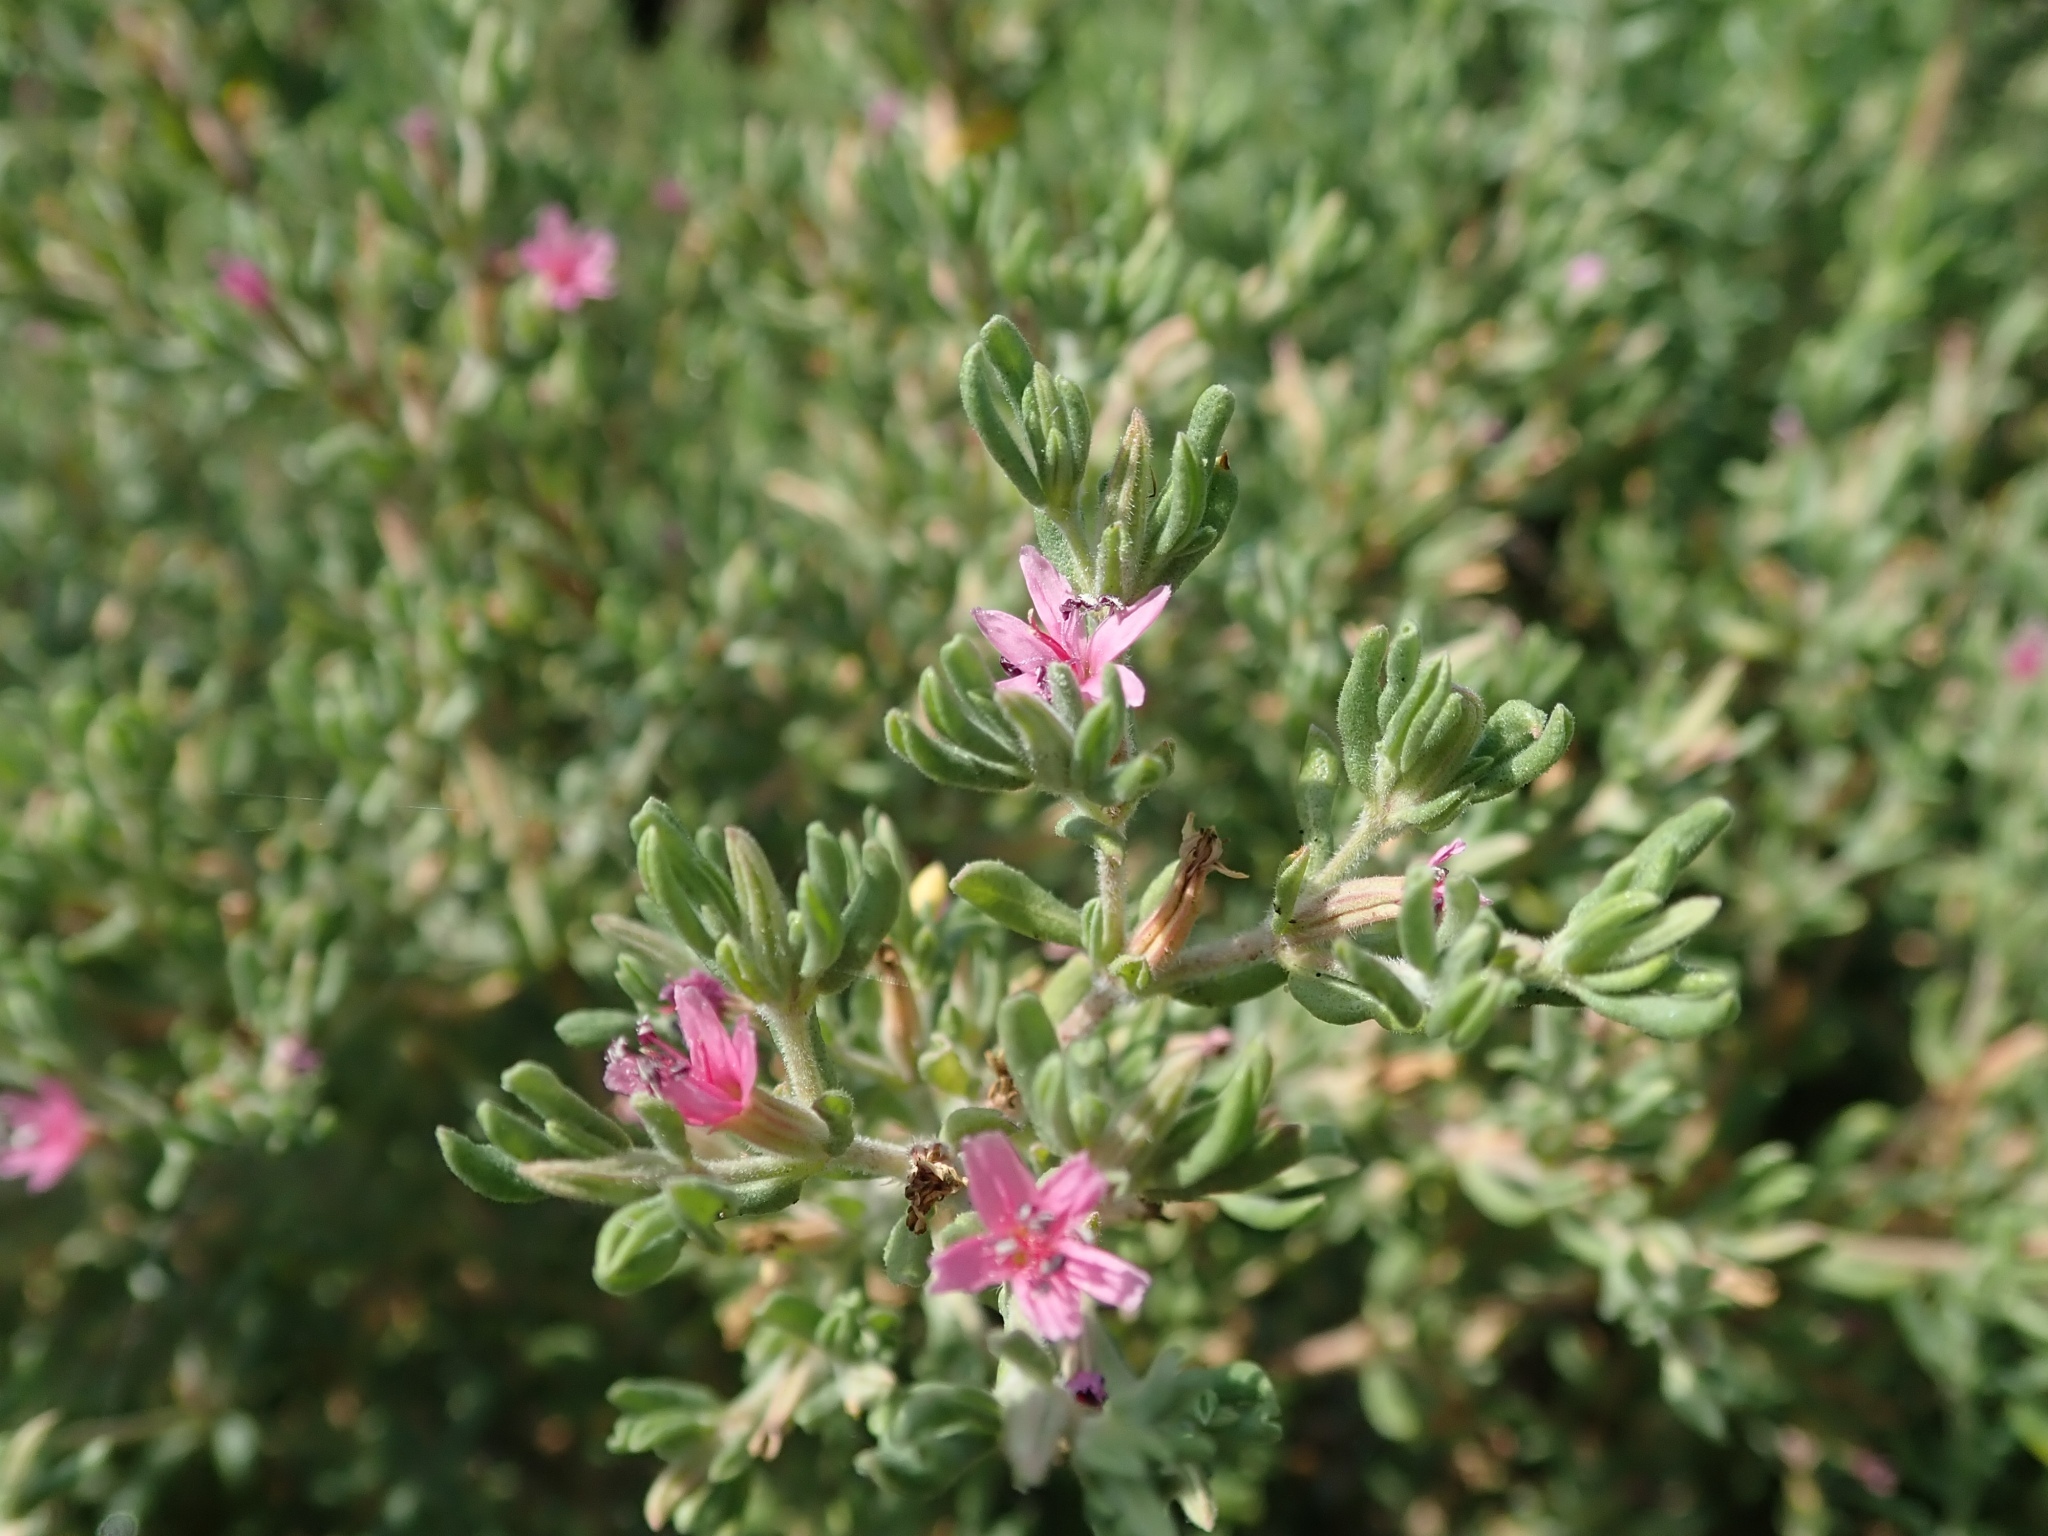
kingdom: Plantae
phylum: Tracheophyta
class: Magnoliopsida
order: Caryophyllales
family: Frankeniaceae
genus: Frankenia
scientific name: Frankenia salina
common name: Alkali seaheath
